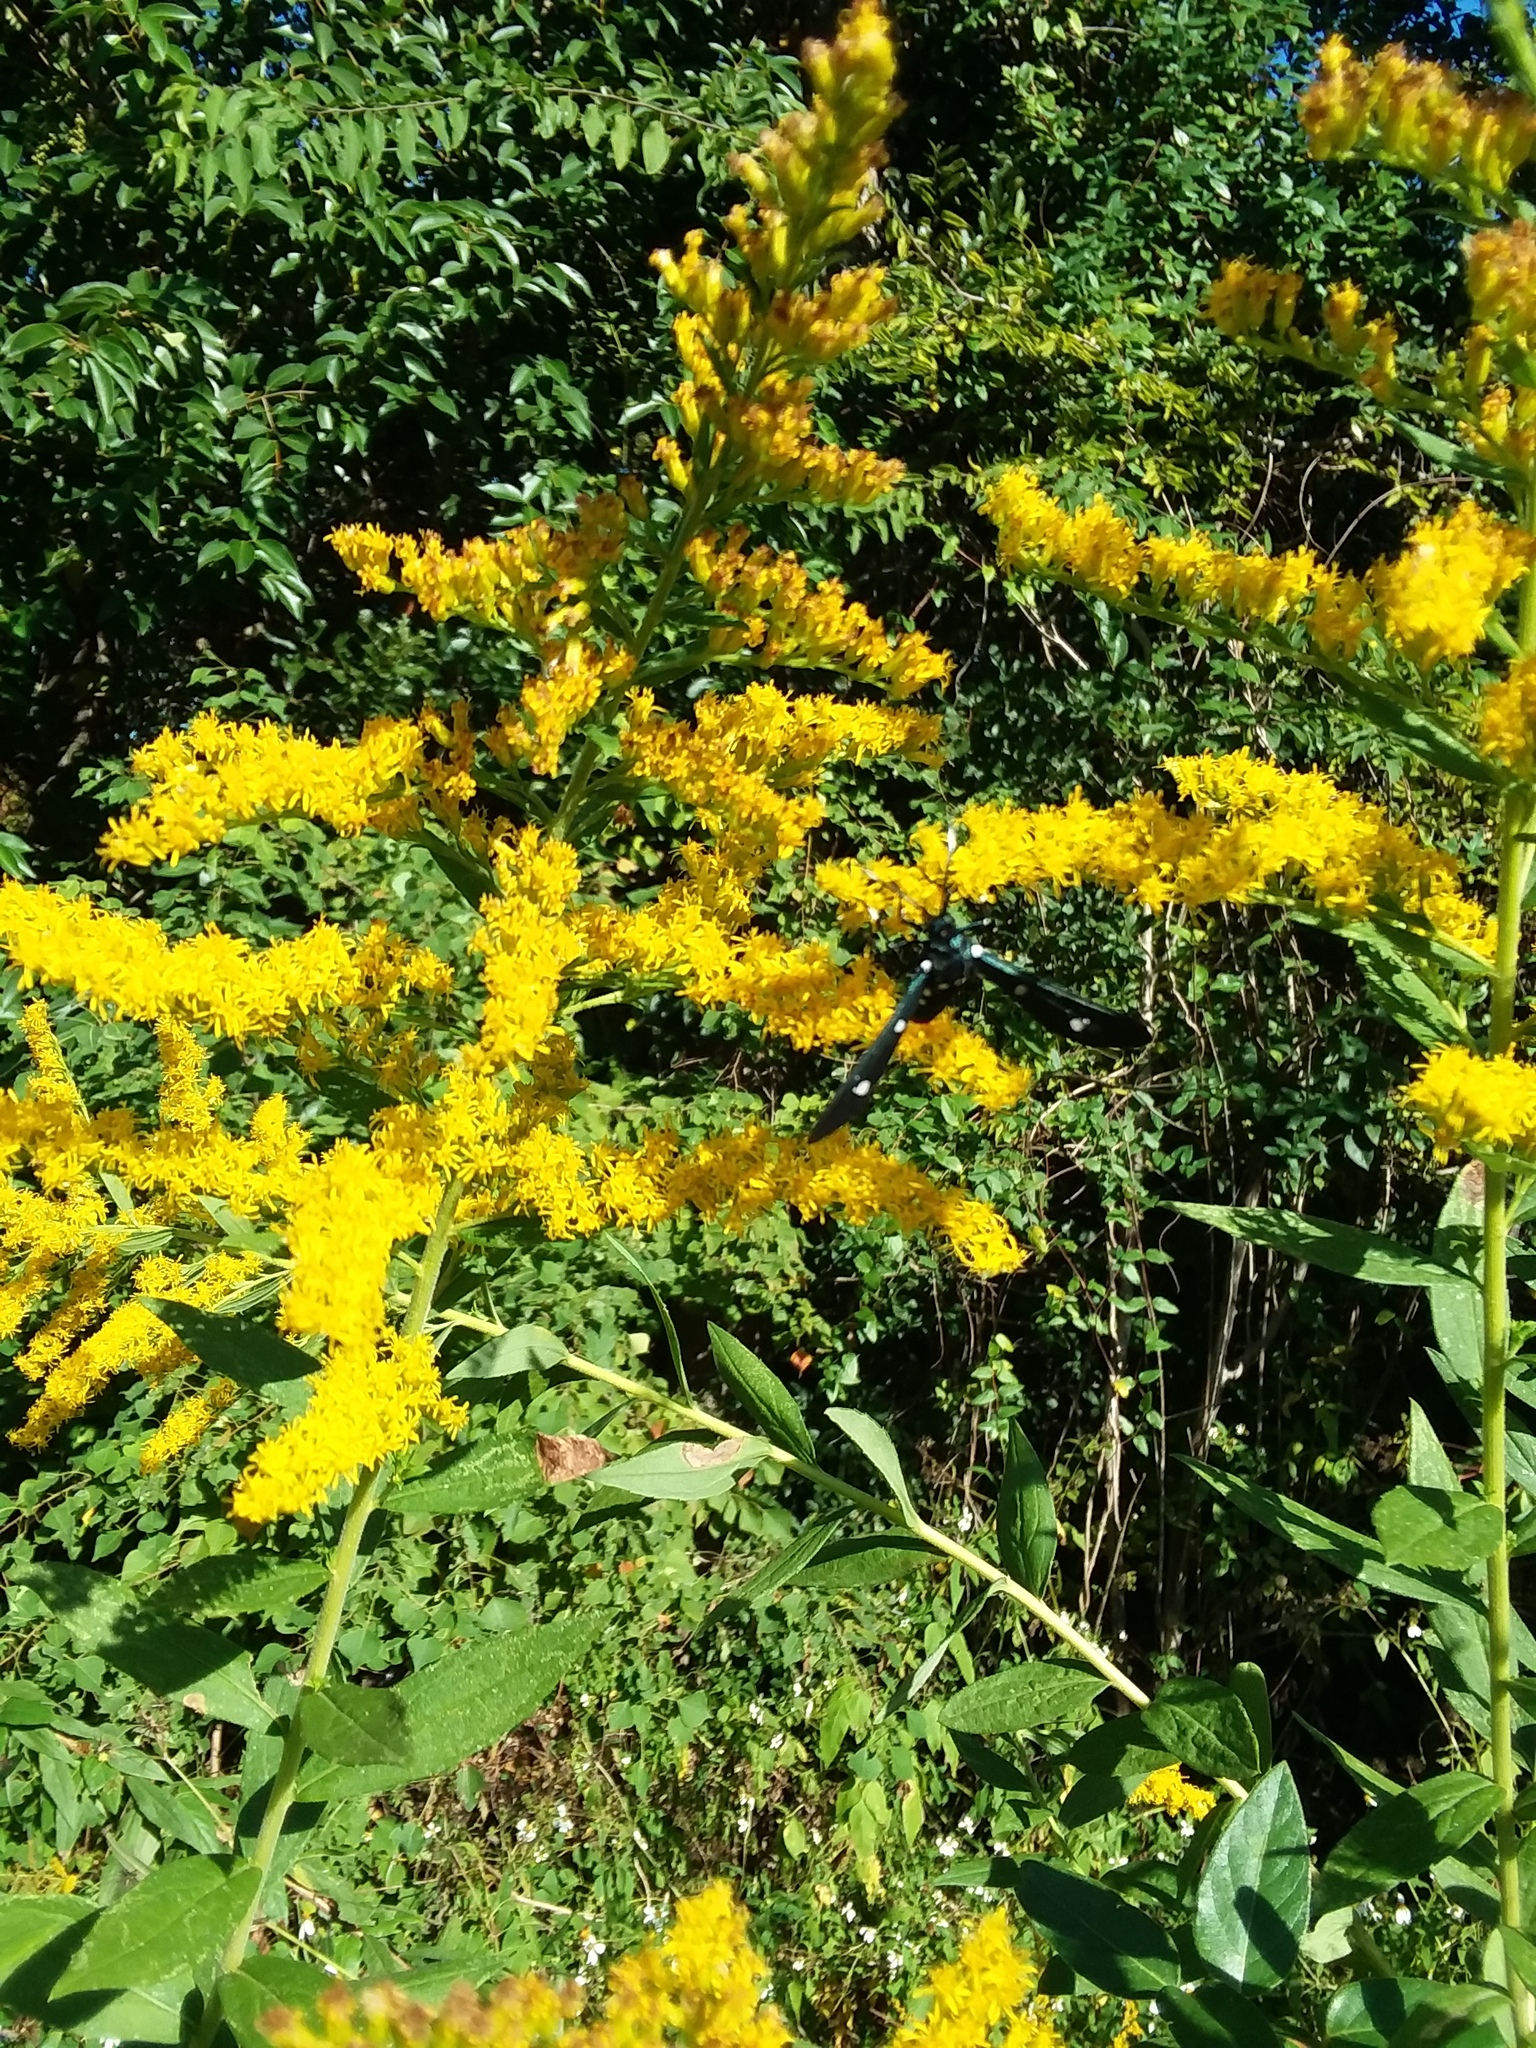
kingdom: Animalia
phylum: Arthropoda
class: Insecta
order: Lepidoptera
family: Erebidae
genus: Syntomeida
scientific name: Syntomeida epilais
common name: Polka-dot wasp moth
